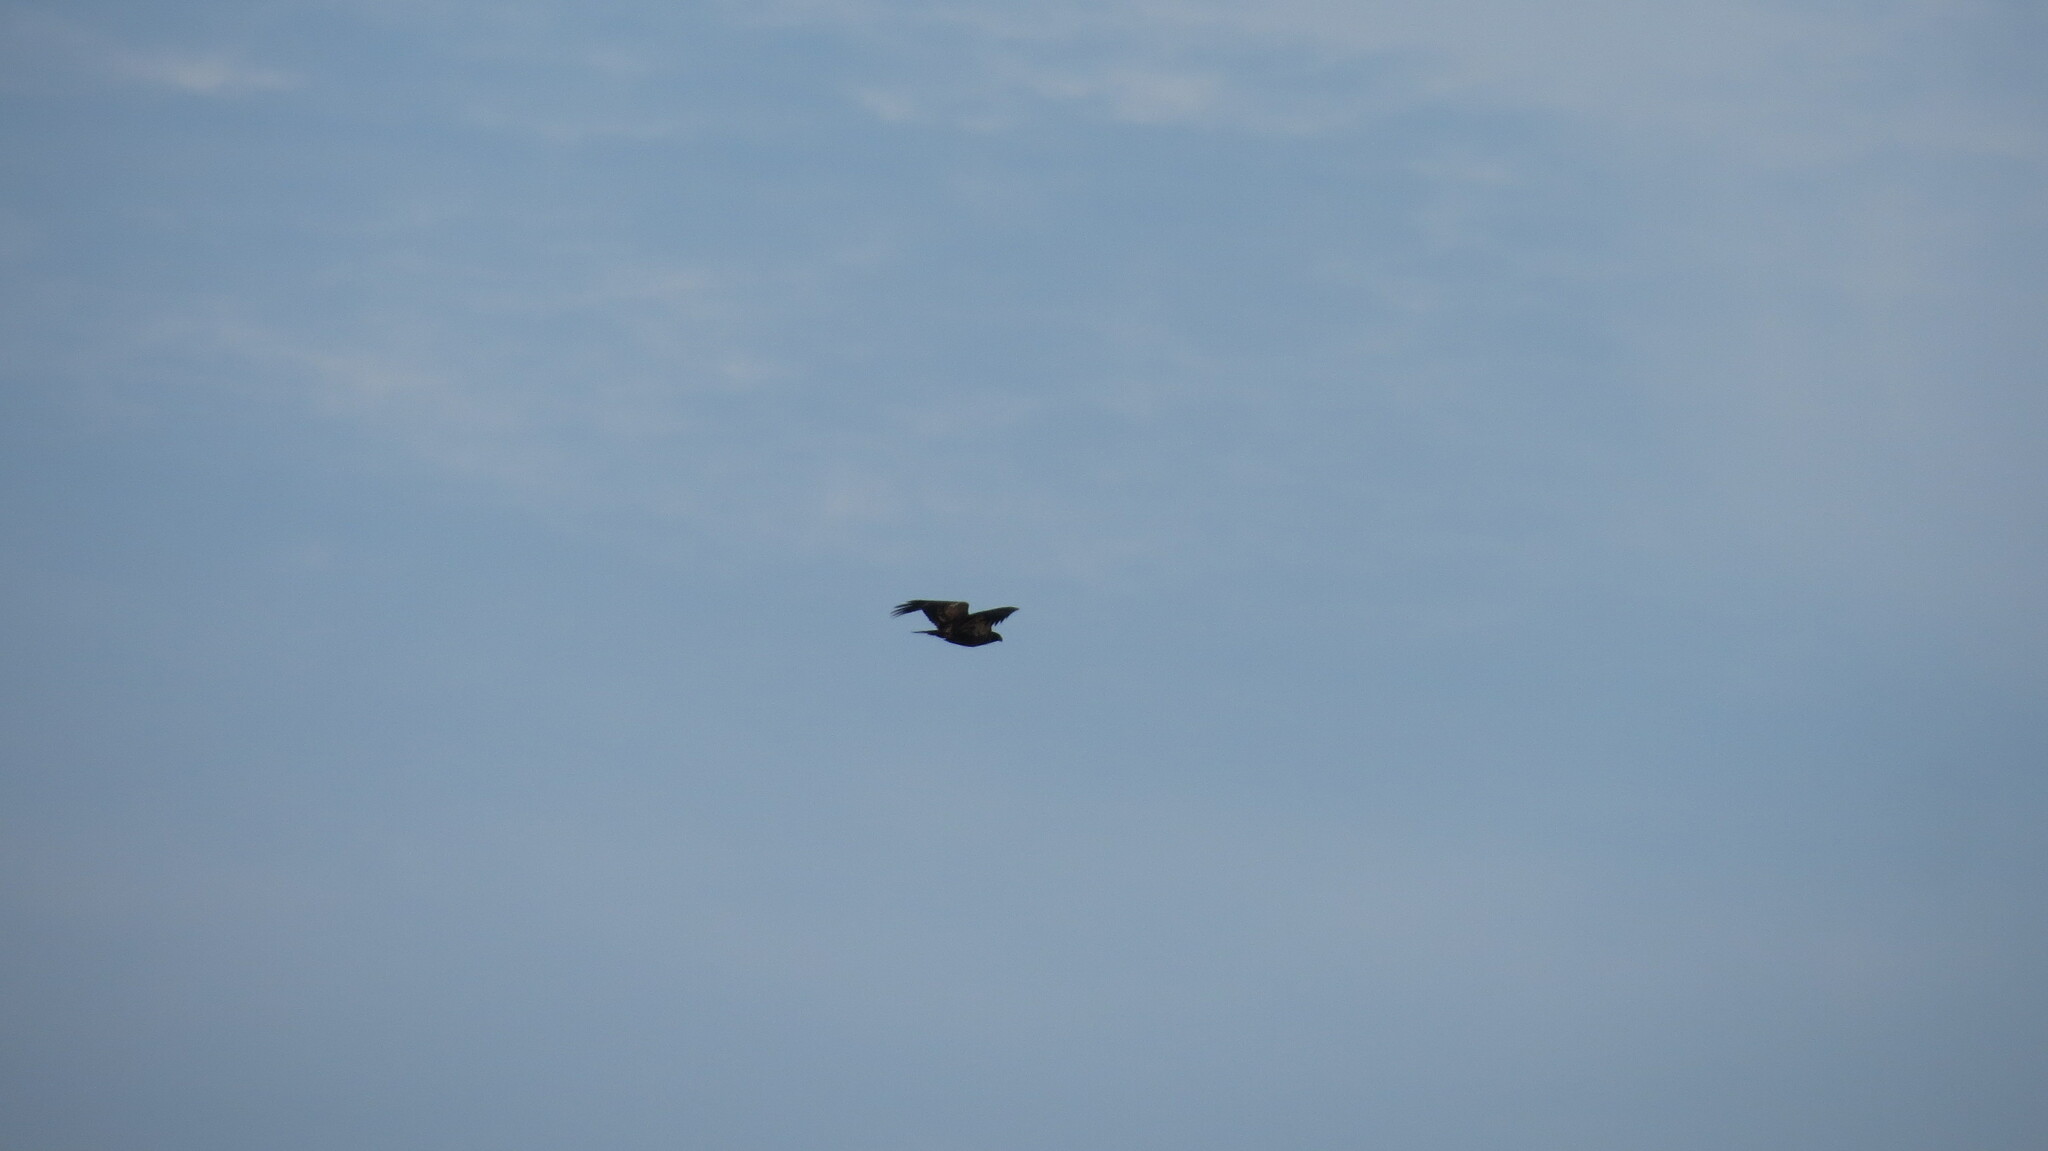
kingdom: Animalia
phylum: Chordata
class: Aves
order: Accipitriformes
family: Accipitridae
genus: Haliaeetus
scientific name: Haliaeetus leucocephalus
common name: Bald eagle
